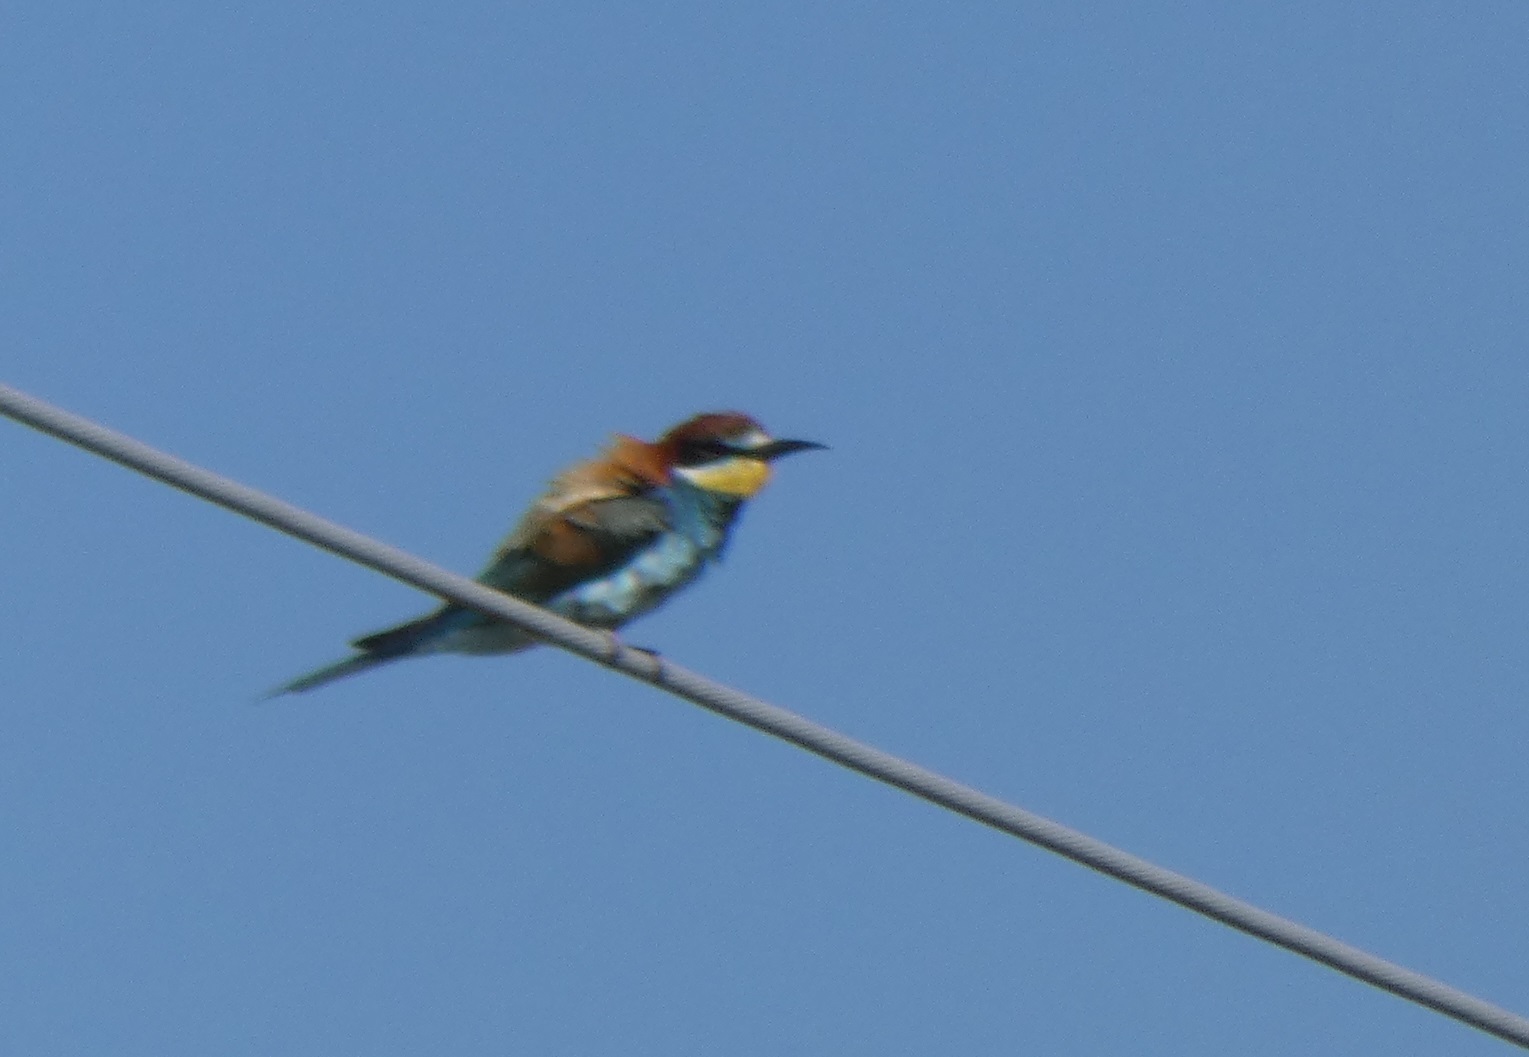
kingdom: Animalia
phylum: Chordata
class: Aves
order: Coraciiformes
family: Meropidae
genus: Merops
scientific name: Merops apiaster
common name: European bee-eater
